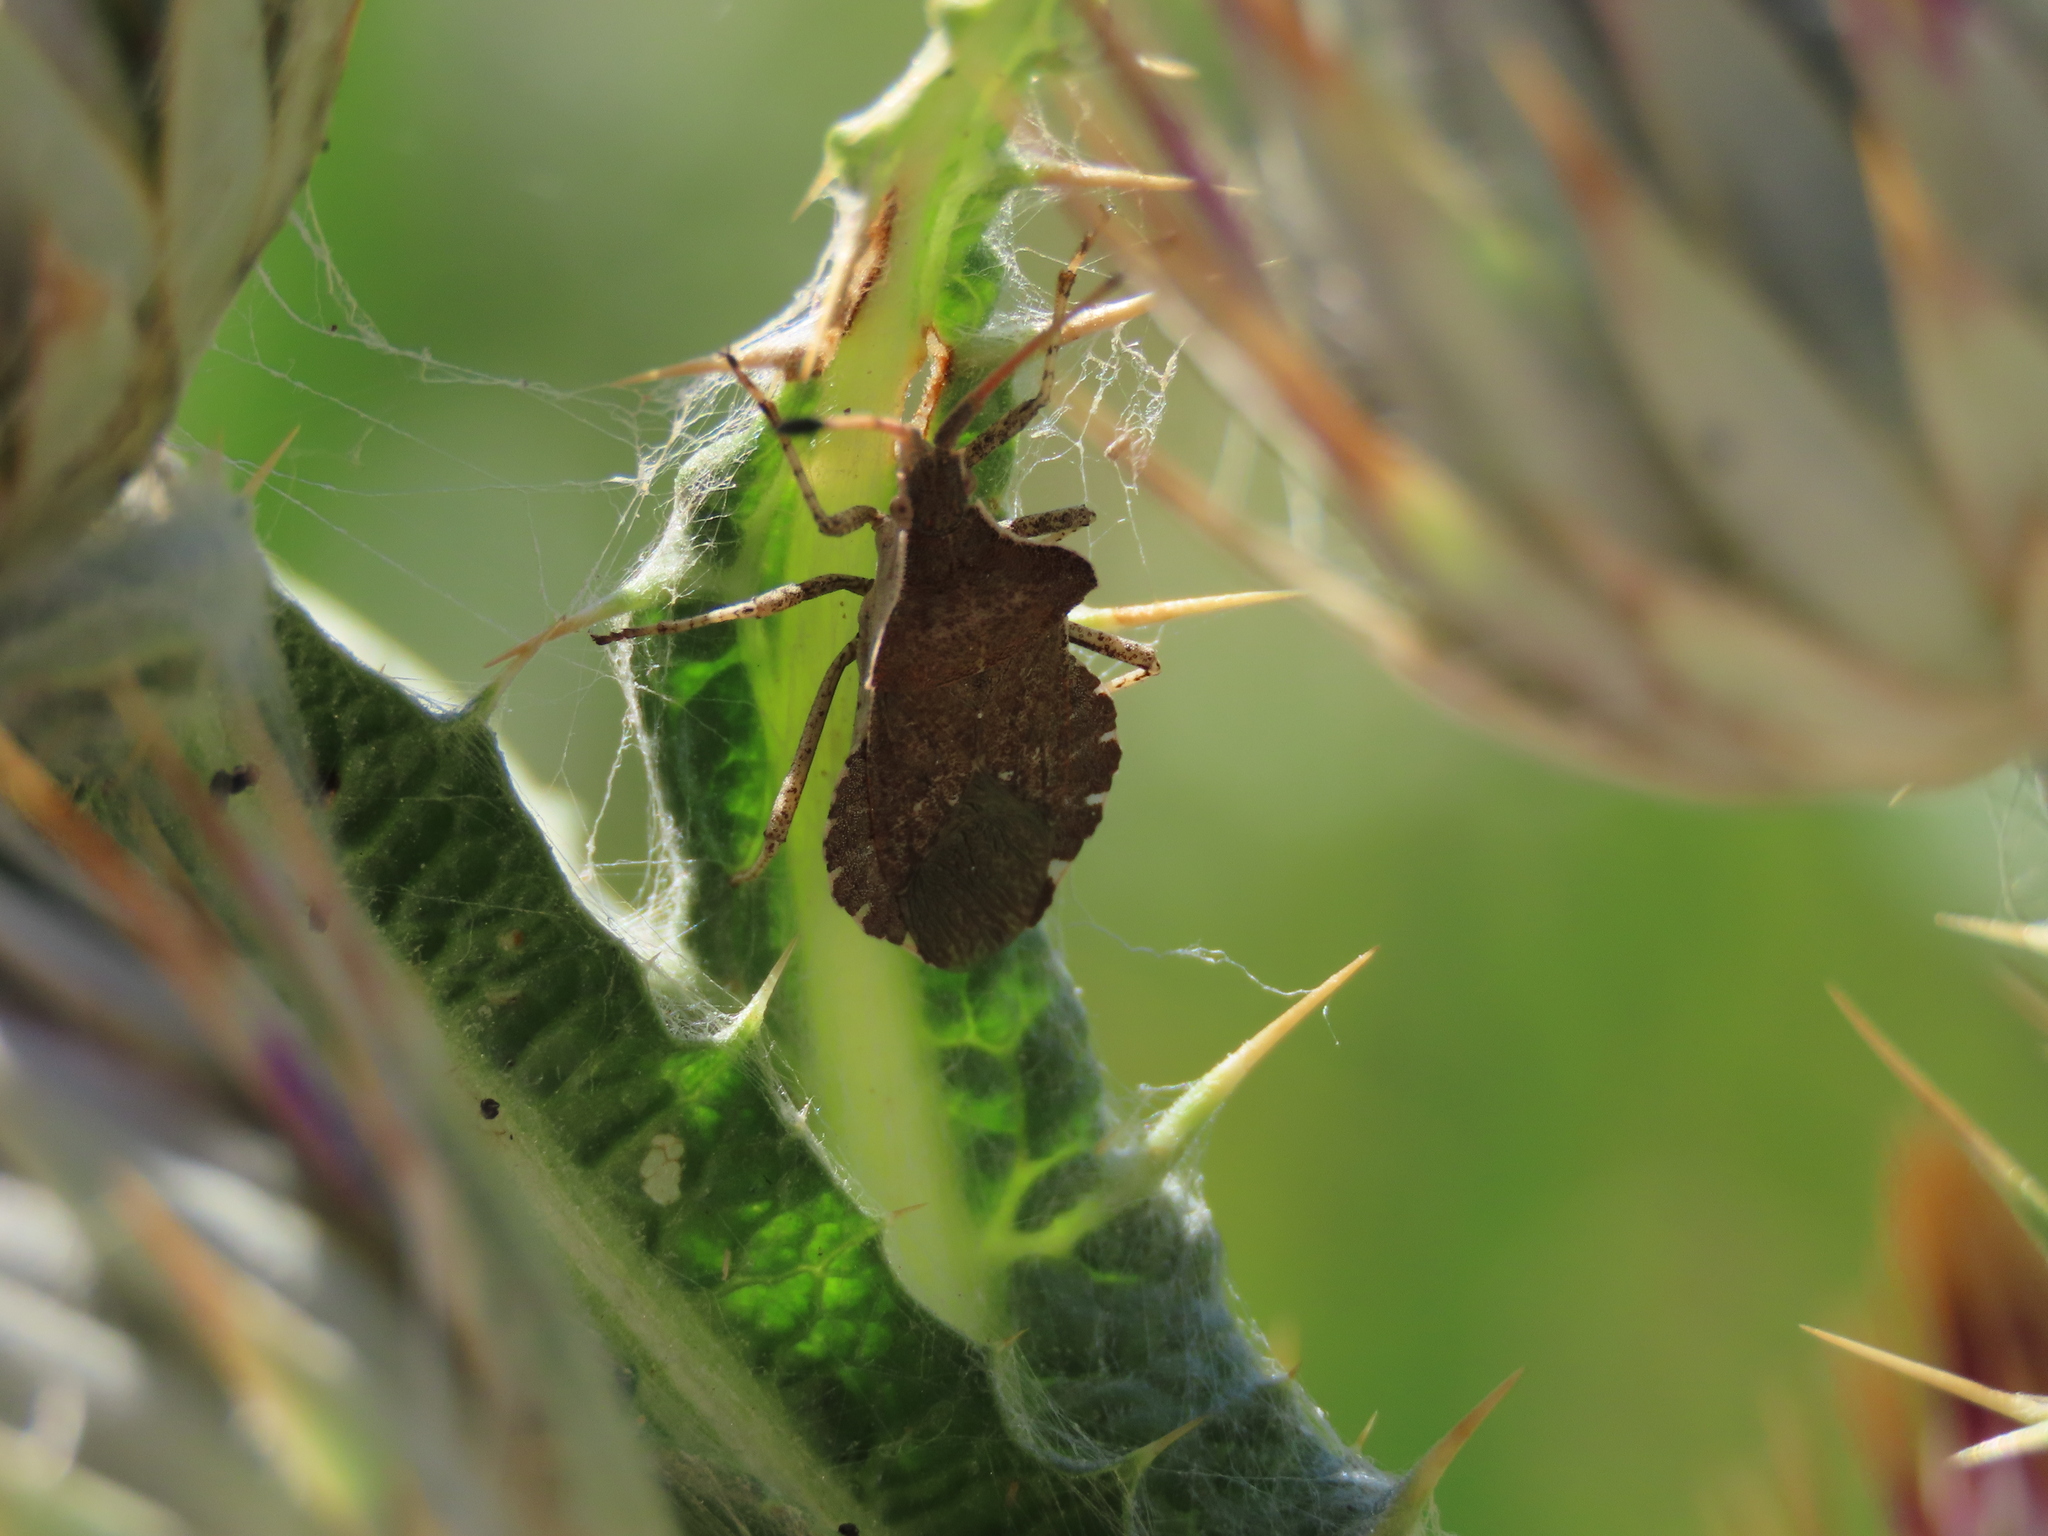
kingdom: Animalia
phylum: Arthropoda
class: Insecta
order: Hemiptera
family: Coreidae
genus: Enoplops
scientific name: Enoplops scapha
